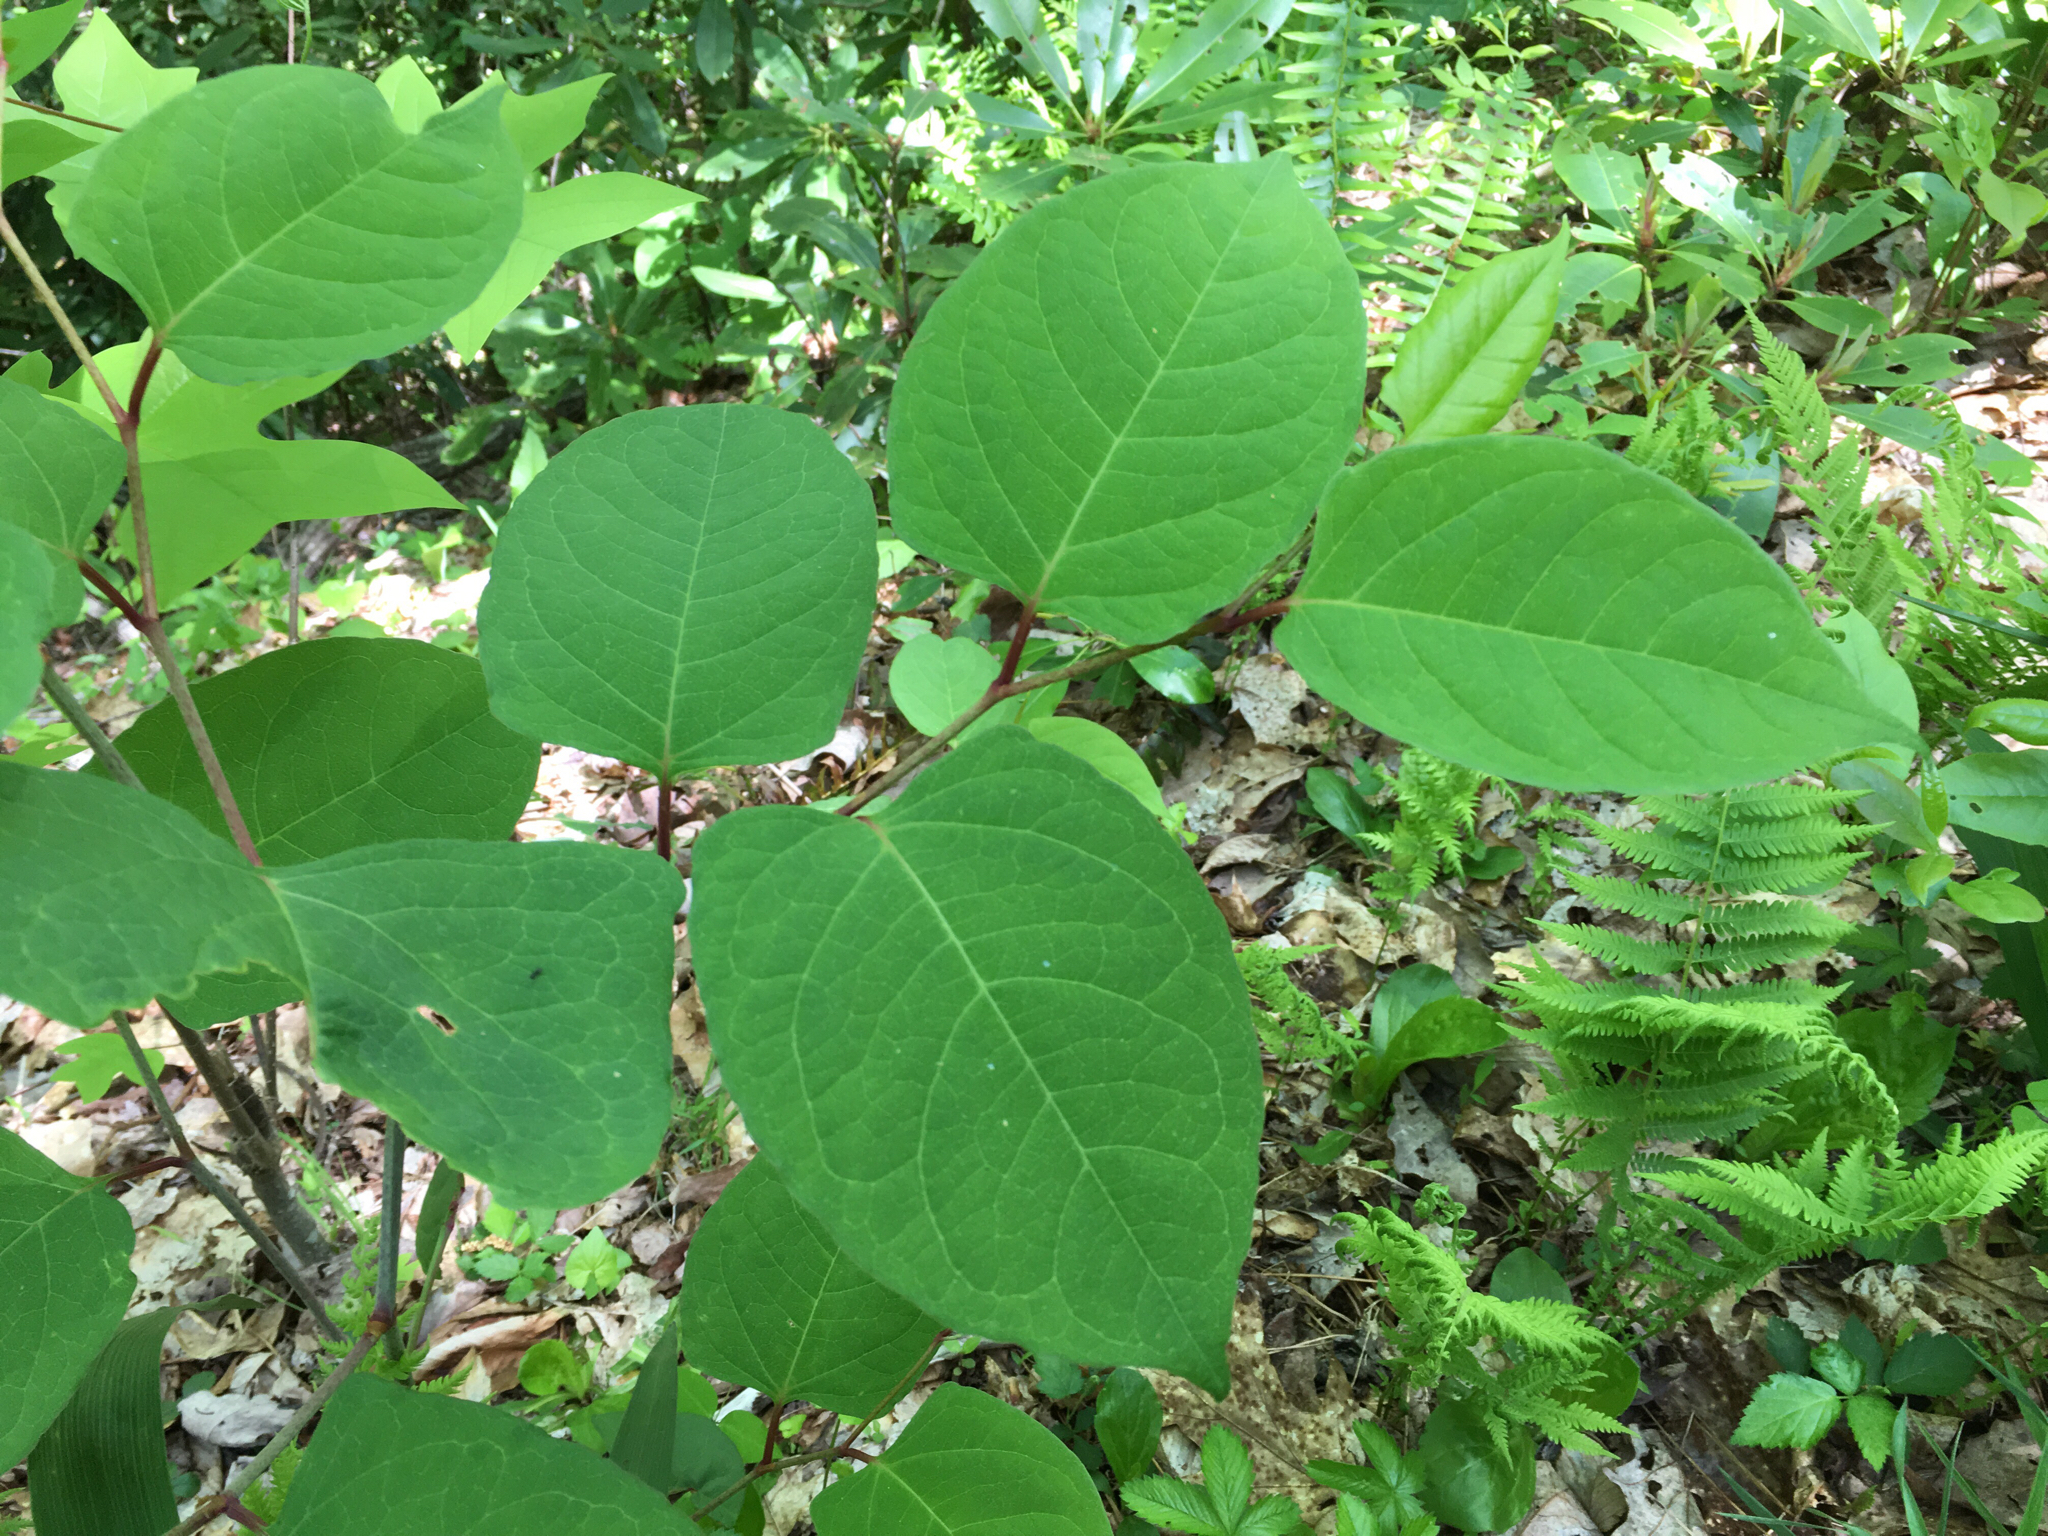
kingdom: Plantae
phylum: Tracheophyta
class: Magnoliopsida
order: Caryophyllales
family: Polygonaceae
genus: Reynoutria
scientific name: Reynoutria japonica
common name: Japanese knotweed
